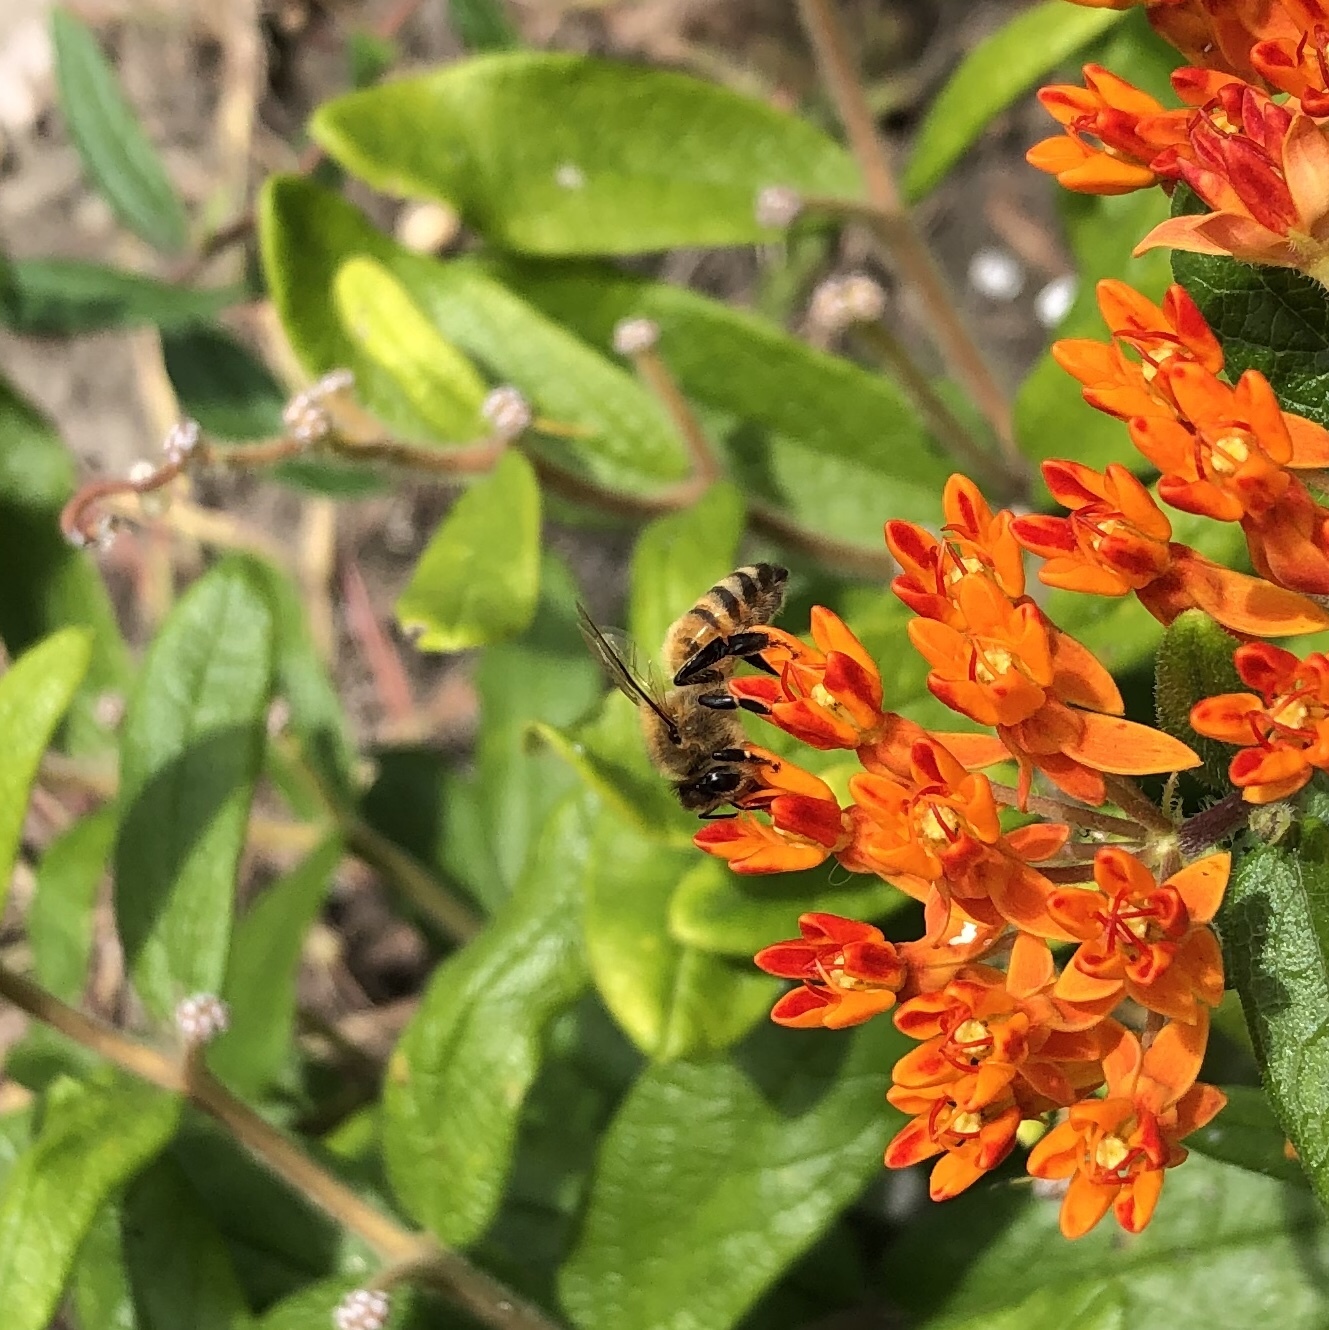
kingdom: Animalia
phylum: Arthropoda
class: Insecta
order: Hymenoptera
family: Apidae
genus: Apis
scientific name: Apis mellifera
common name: Honey bee
